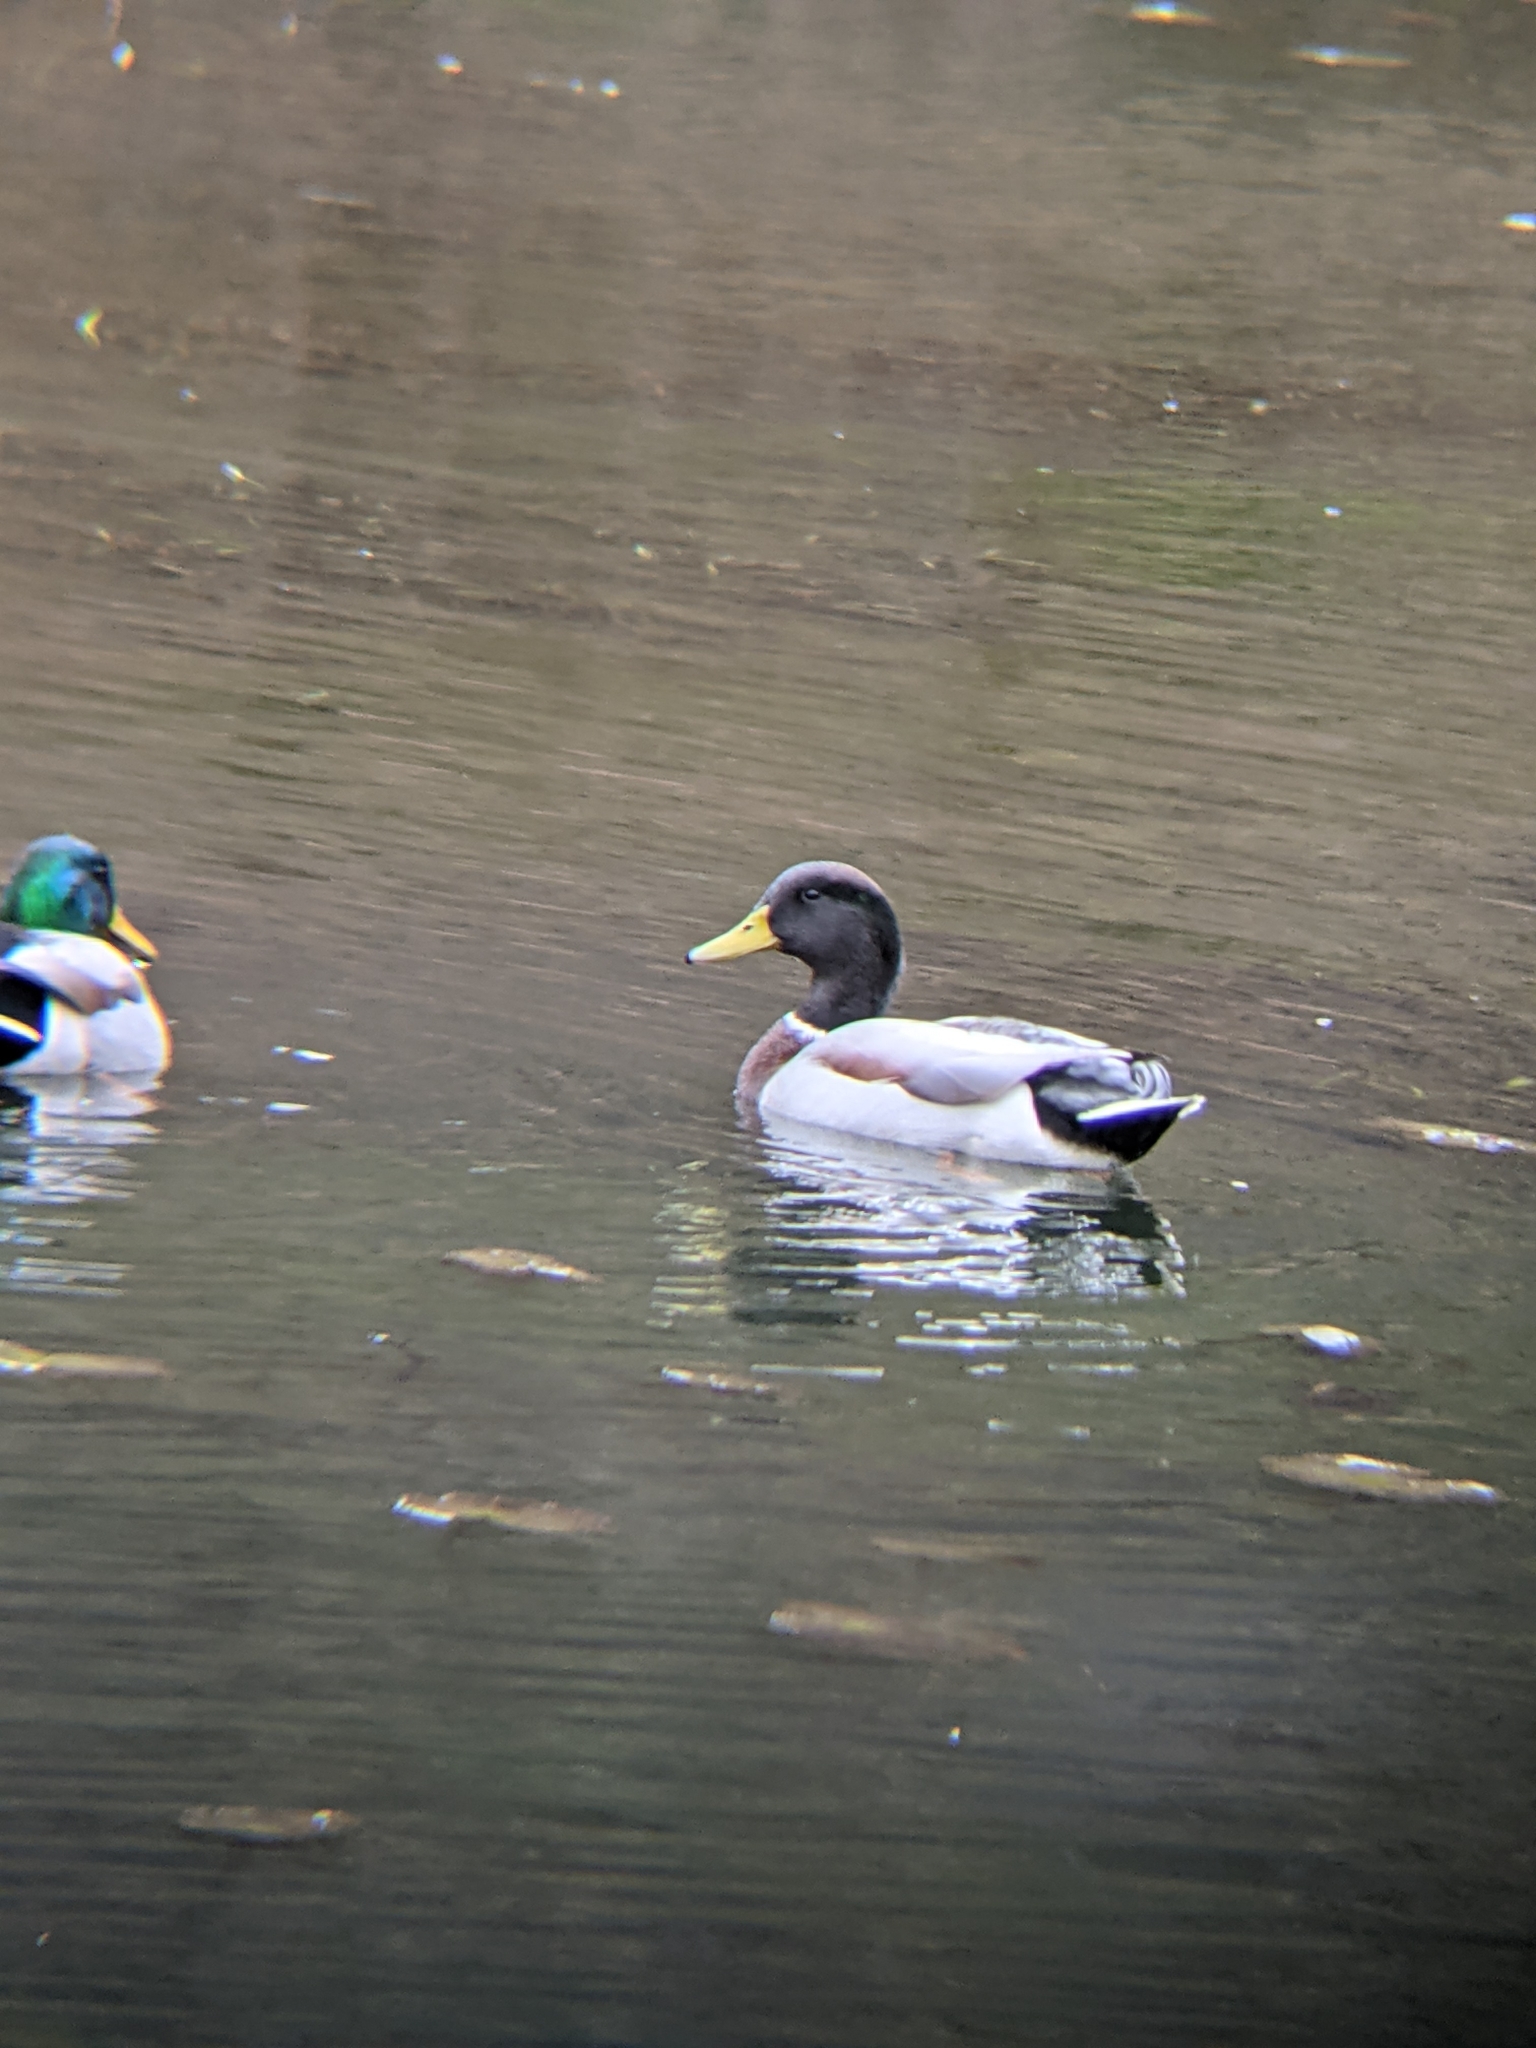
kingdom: Animalia
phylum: Chordata
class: Aves
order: Anseriformes
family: Anatidae
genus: Anas
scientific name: Anas platyrhynchos
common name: Mallard
